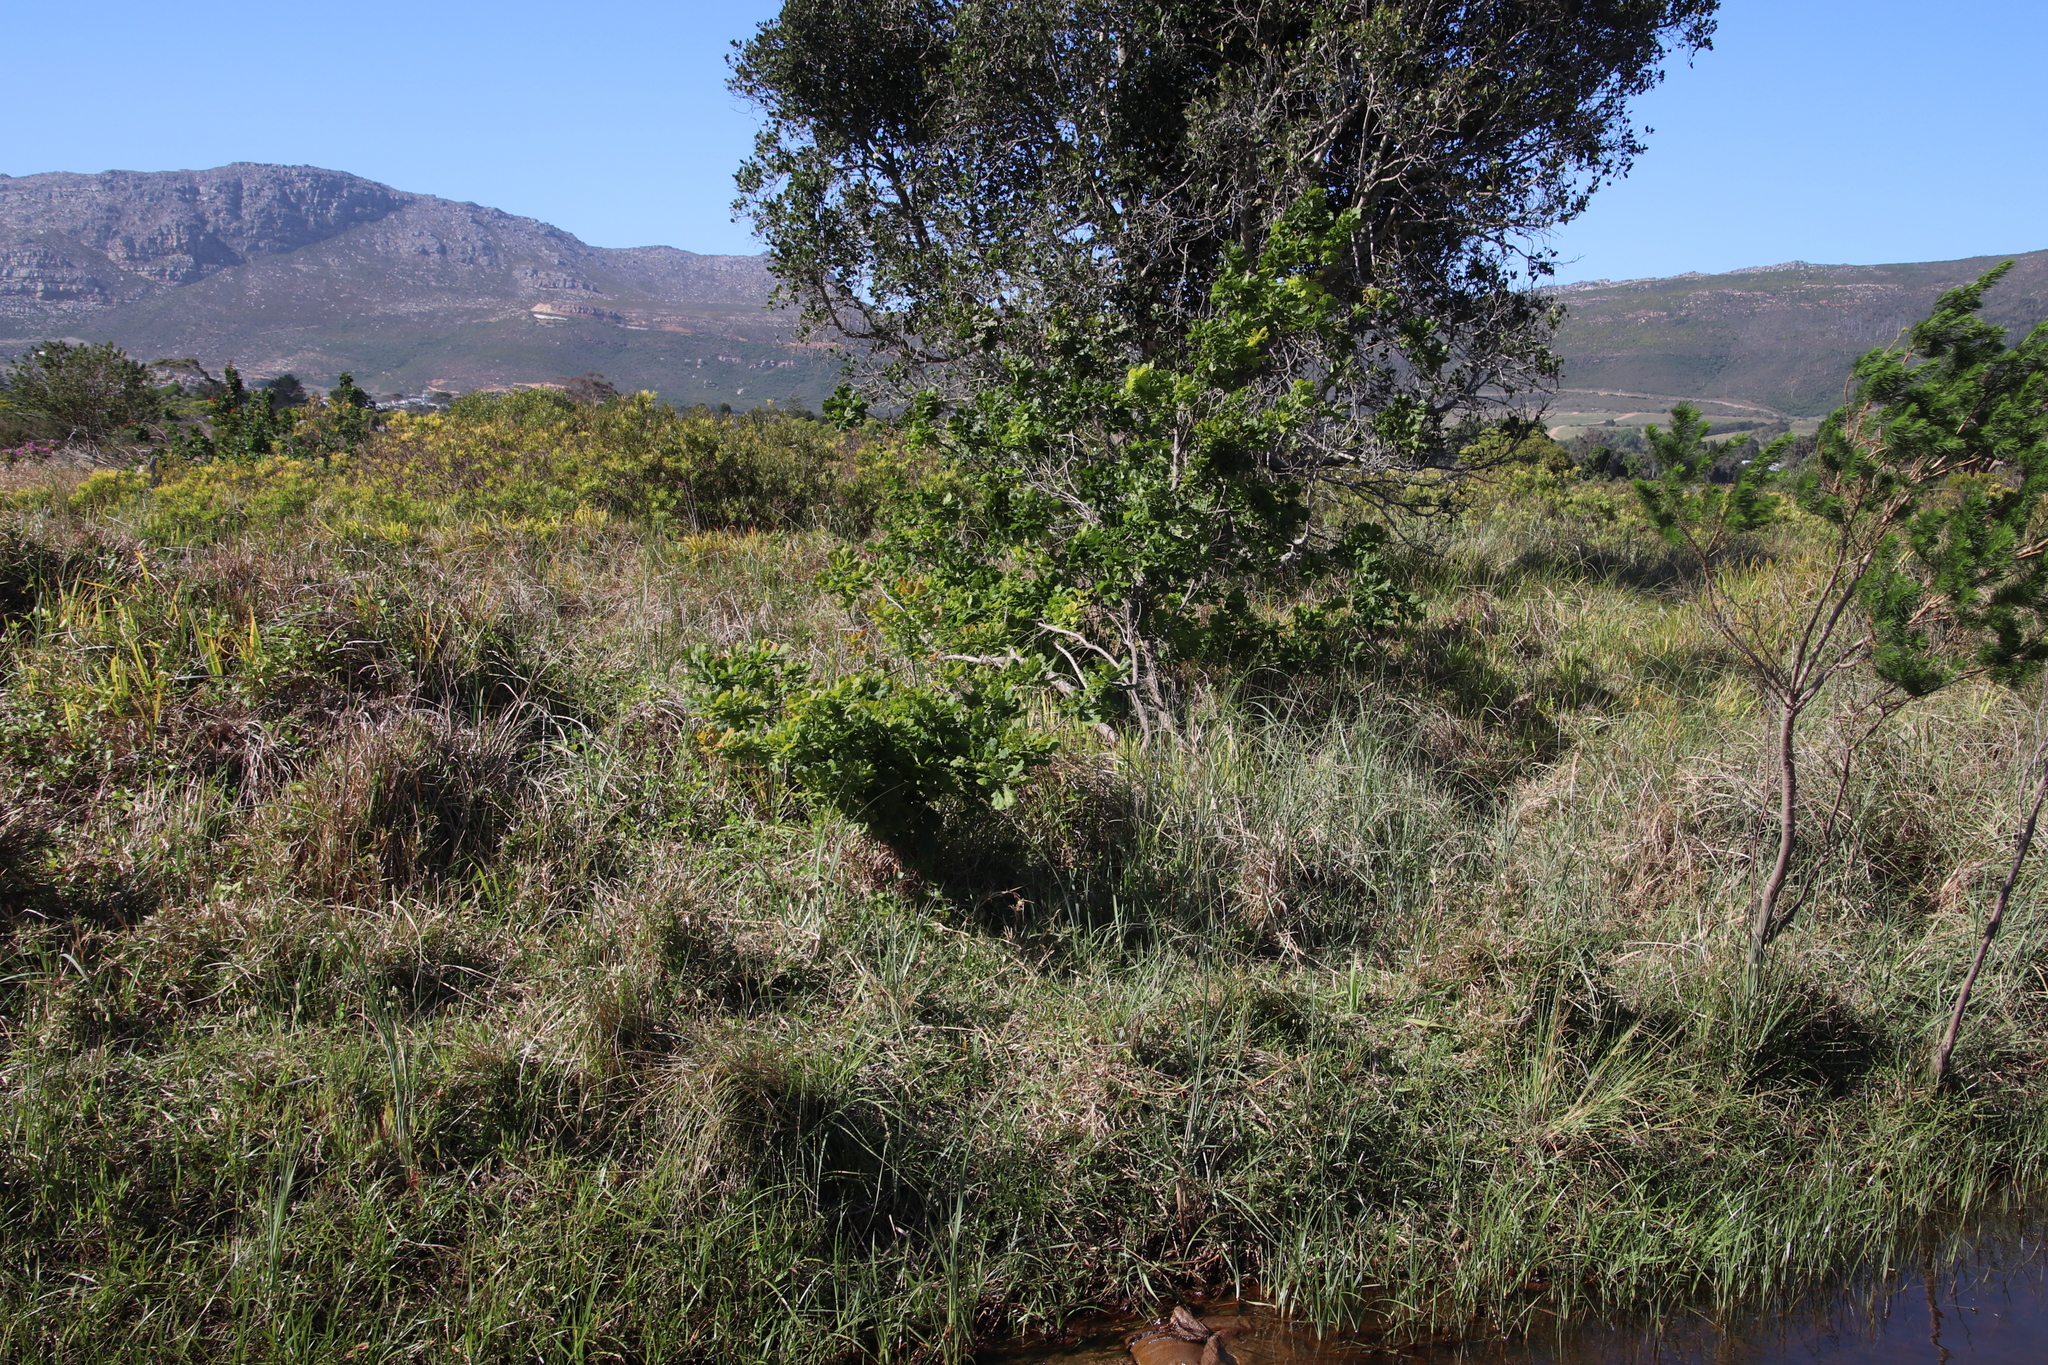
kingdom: Plantae
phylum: Tracheophyta
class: Magnoliopsida
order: Fagales
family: Fagaceae
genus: Quercus
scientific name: Quercus robur
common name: Pedunculate oak
